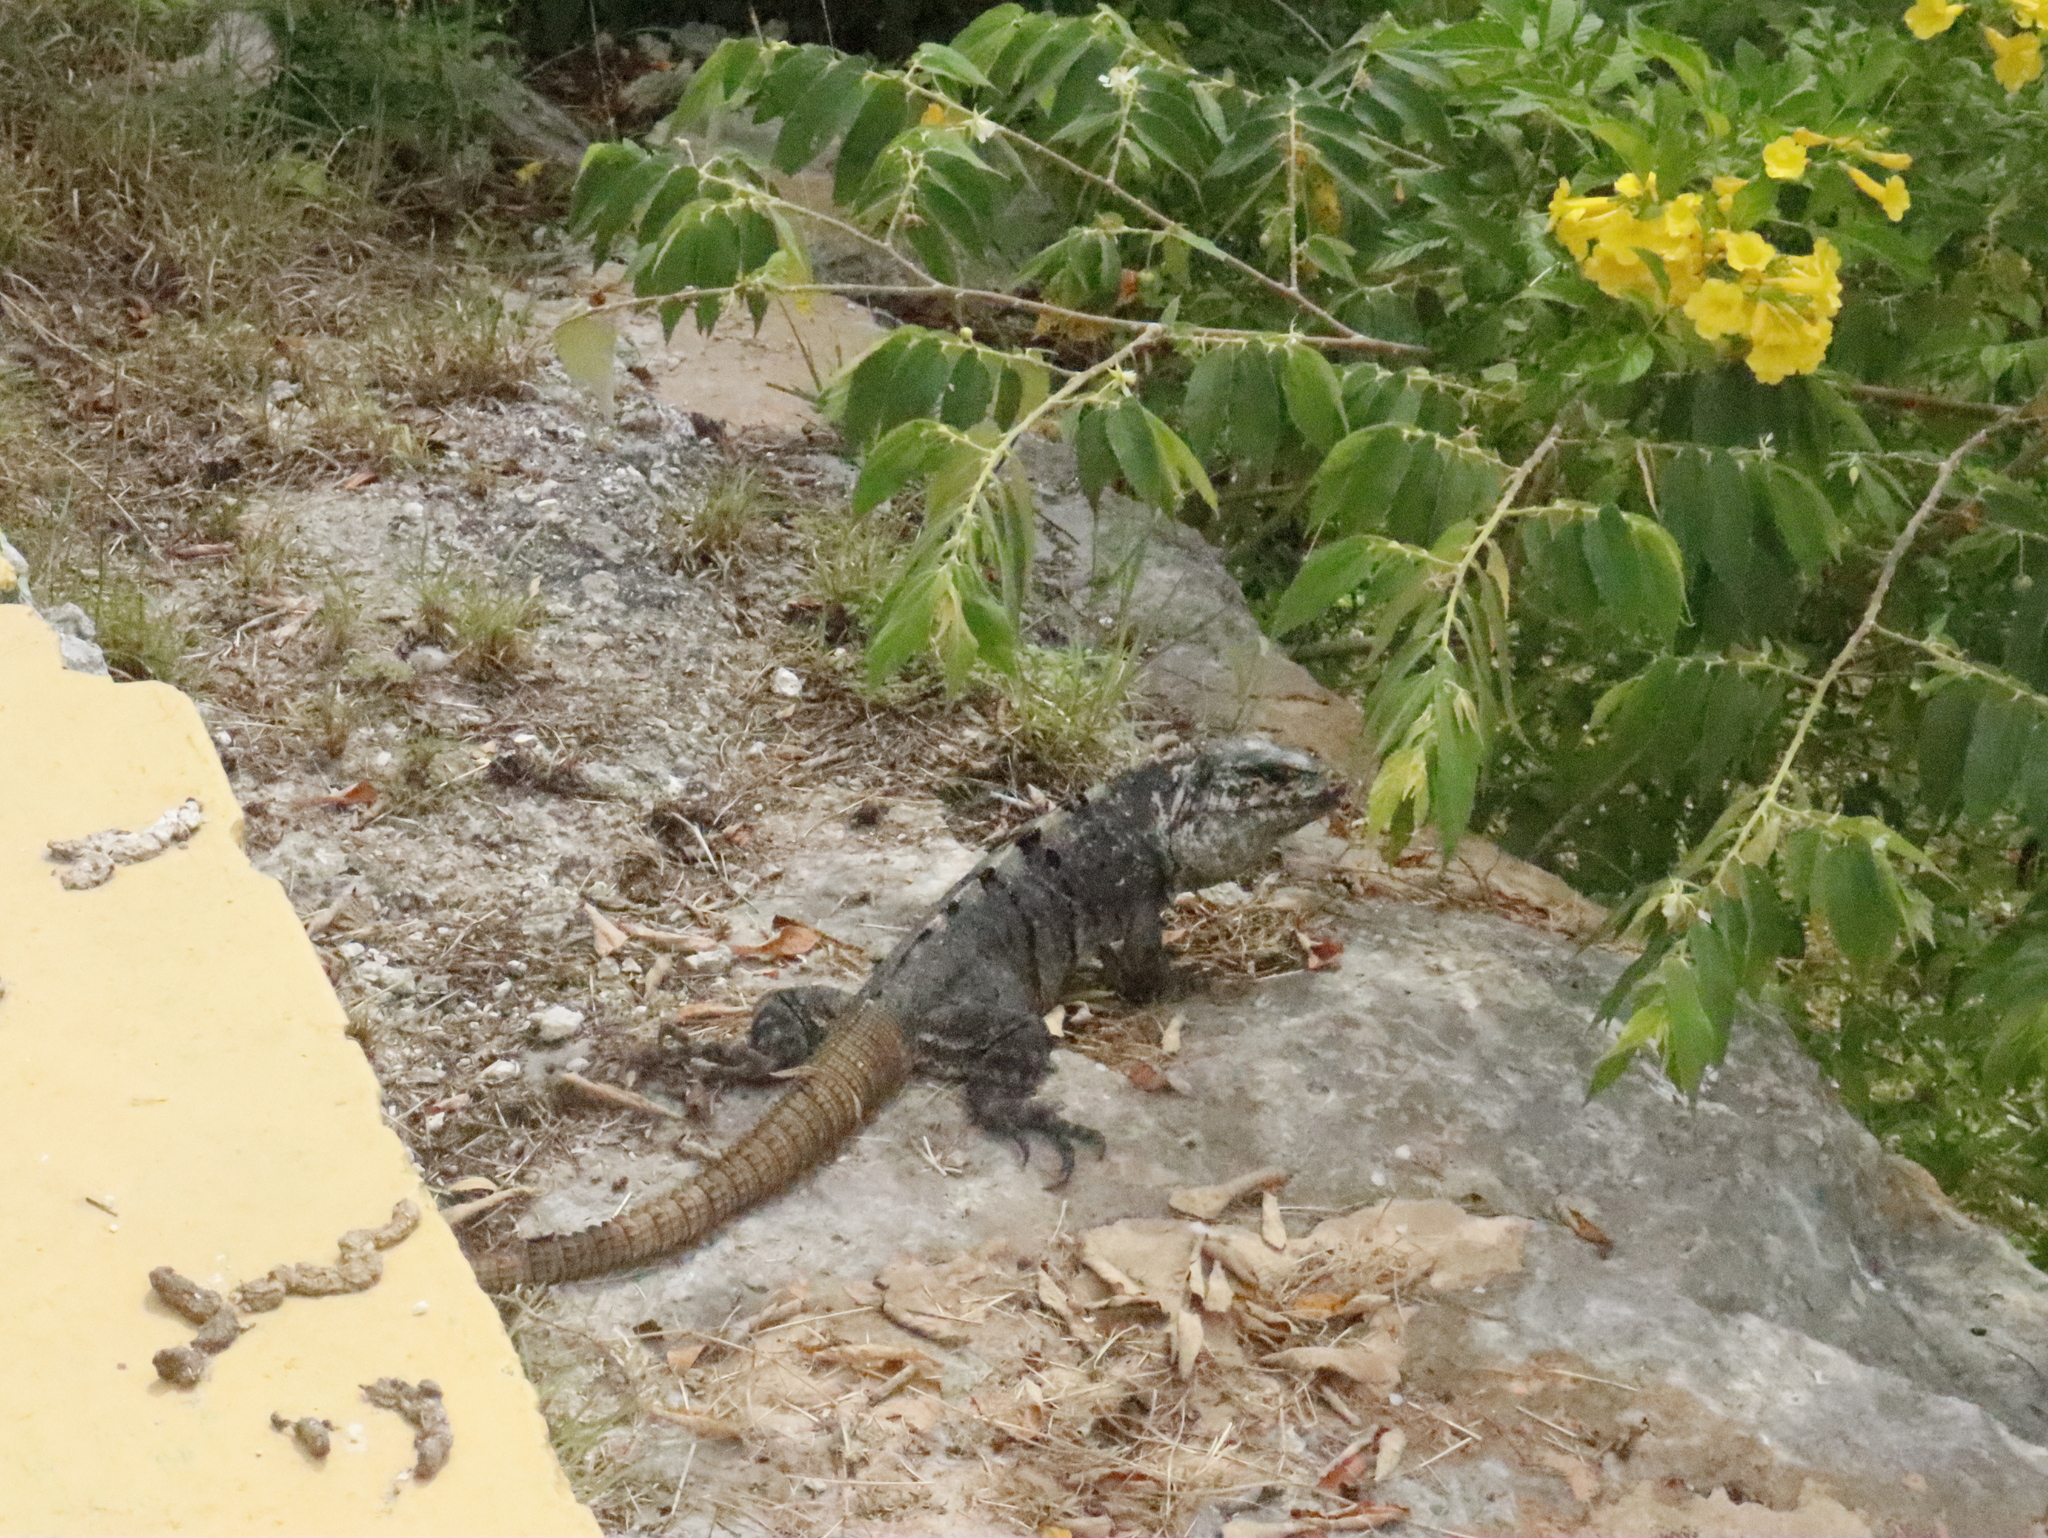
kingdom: Animalia
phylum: Chordata
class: Squamata
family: Iguanidae
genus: Ctenosaura
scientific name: Ctenosaura similis
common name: Black spiny-tailed iguana
